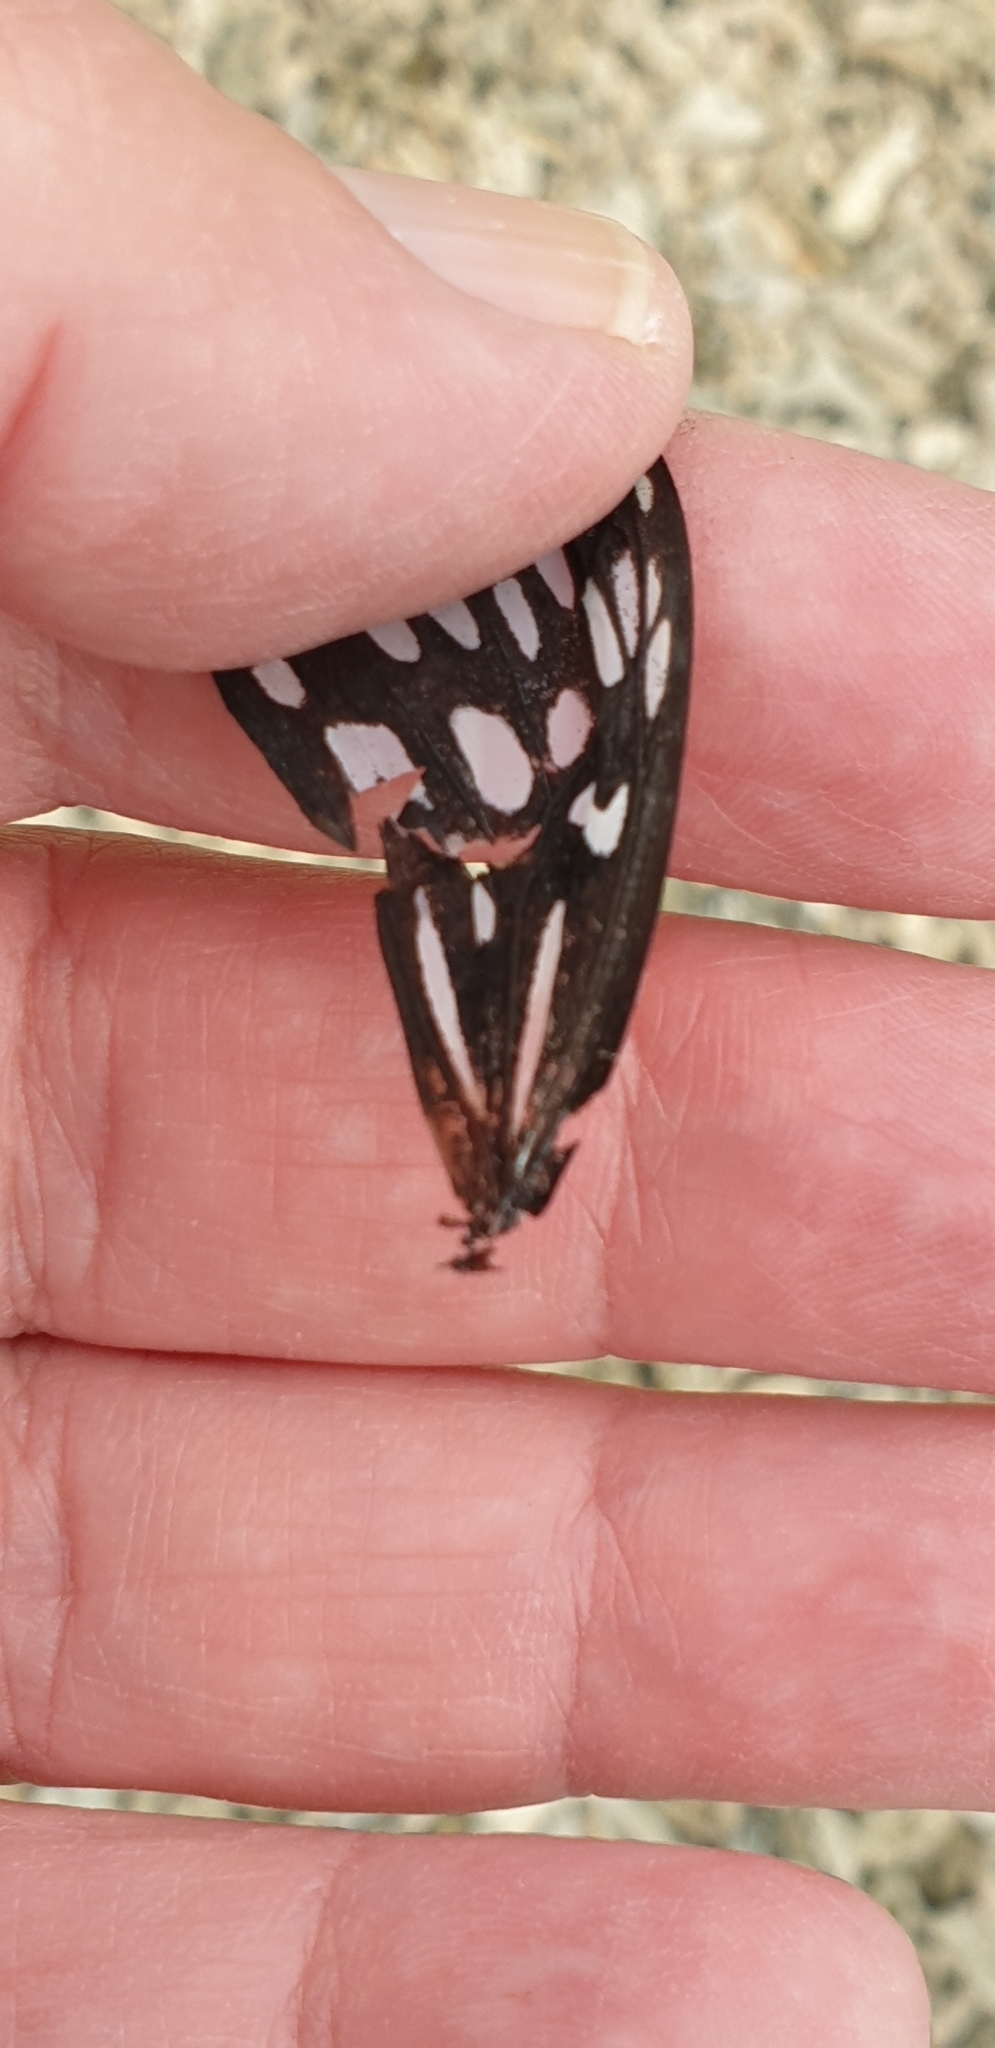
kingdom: Animalia
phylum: Arthropoda
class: Insecta
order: Lepidoptera
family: Nymphalidae
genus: Tirumala
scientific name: Tirumala hamata
